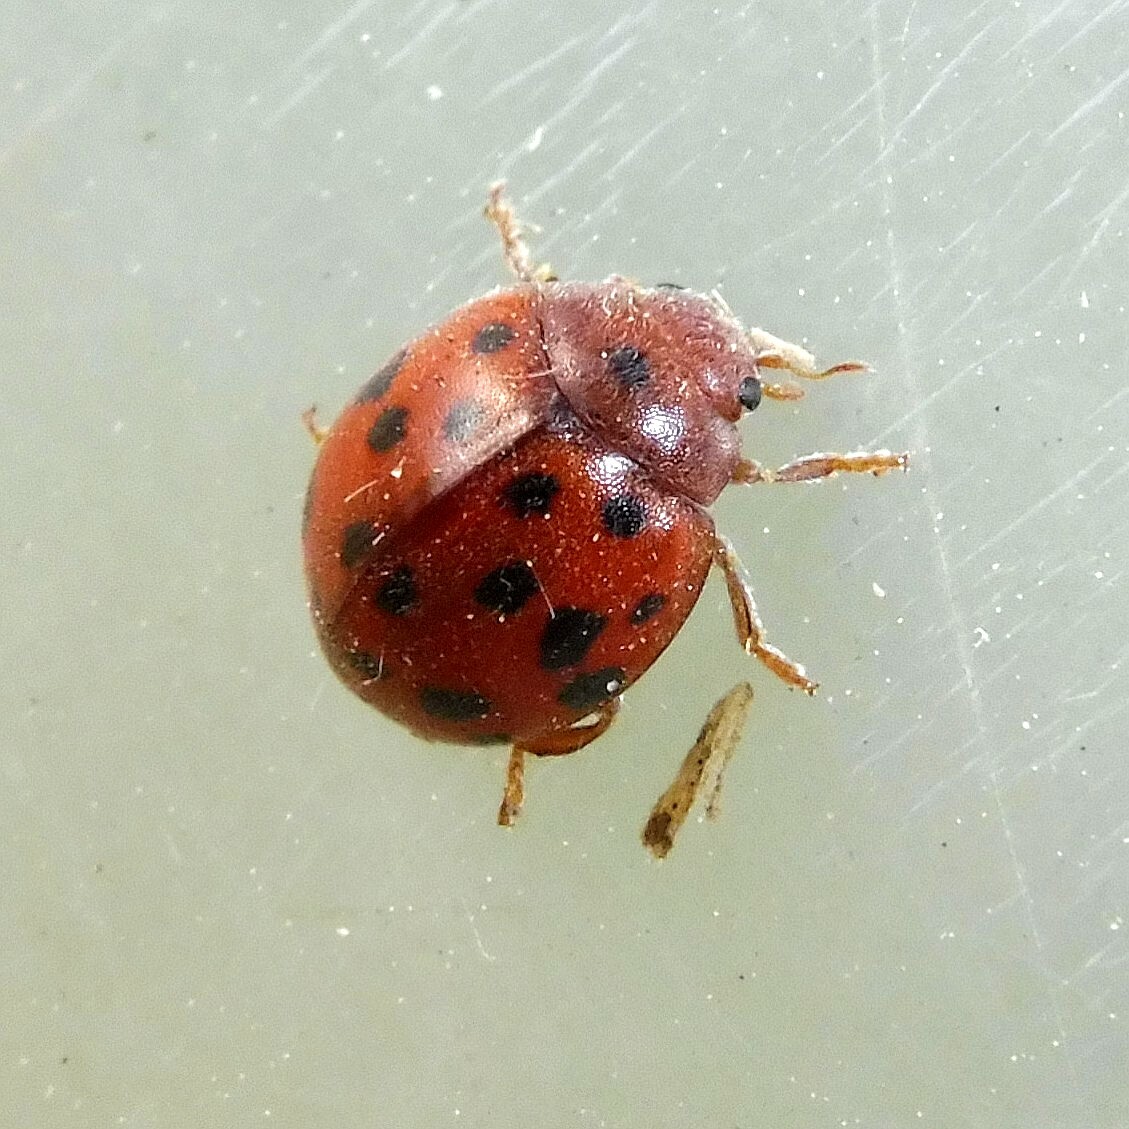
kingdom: Animalia
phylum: Arthropoda
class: Insecta
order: Coleoptera
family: Coccinellidae
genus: Subcoccinella
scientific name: Subcoccinella vigintiquatuorpunctata
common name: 24-spot ladybird
